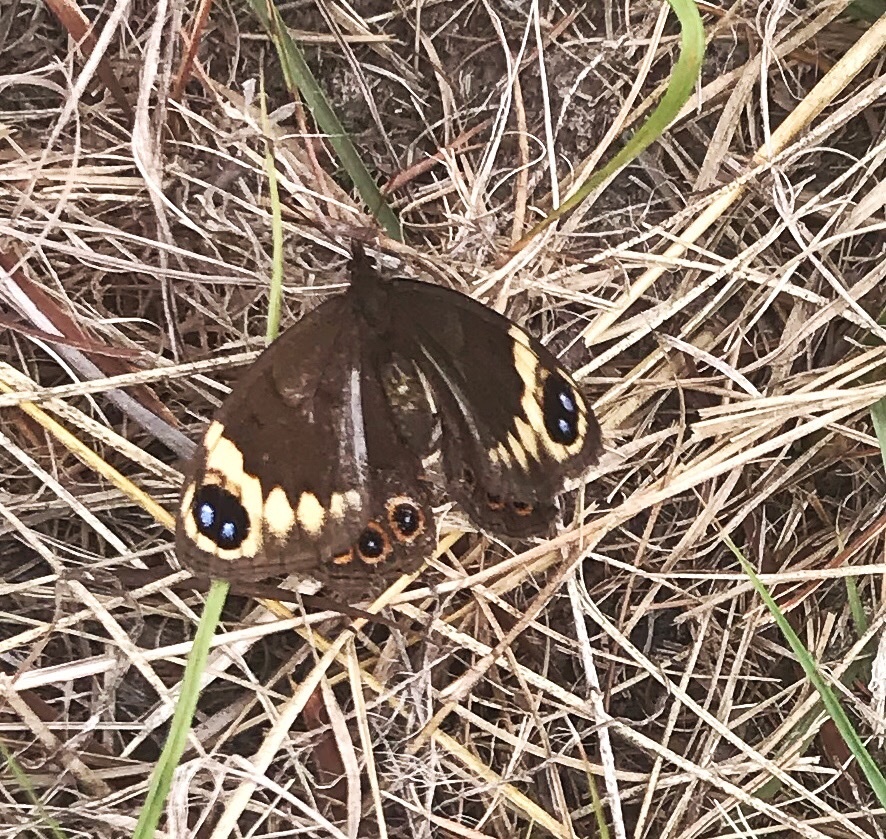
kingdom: Animalia
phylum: Arthropoda
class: Insecta
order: Lepidoptera
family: Nymphalidae
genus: Dira
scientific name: Dira clytus
